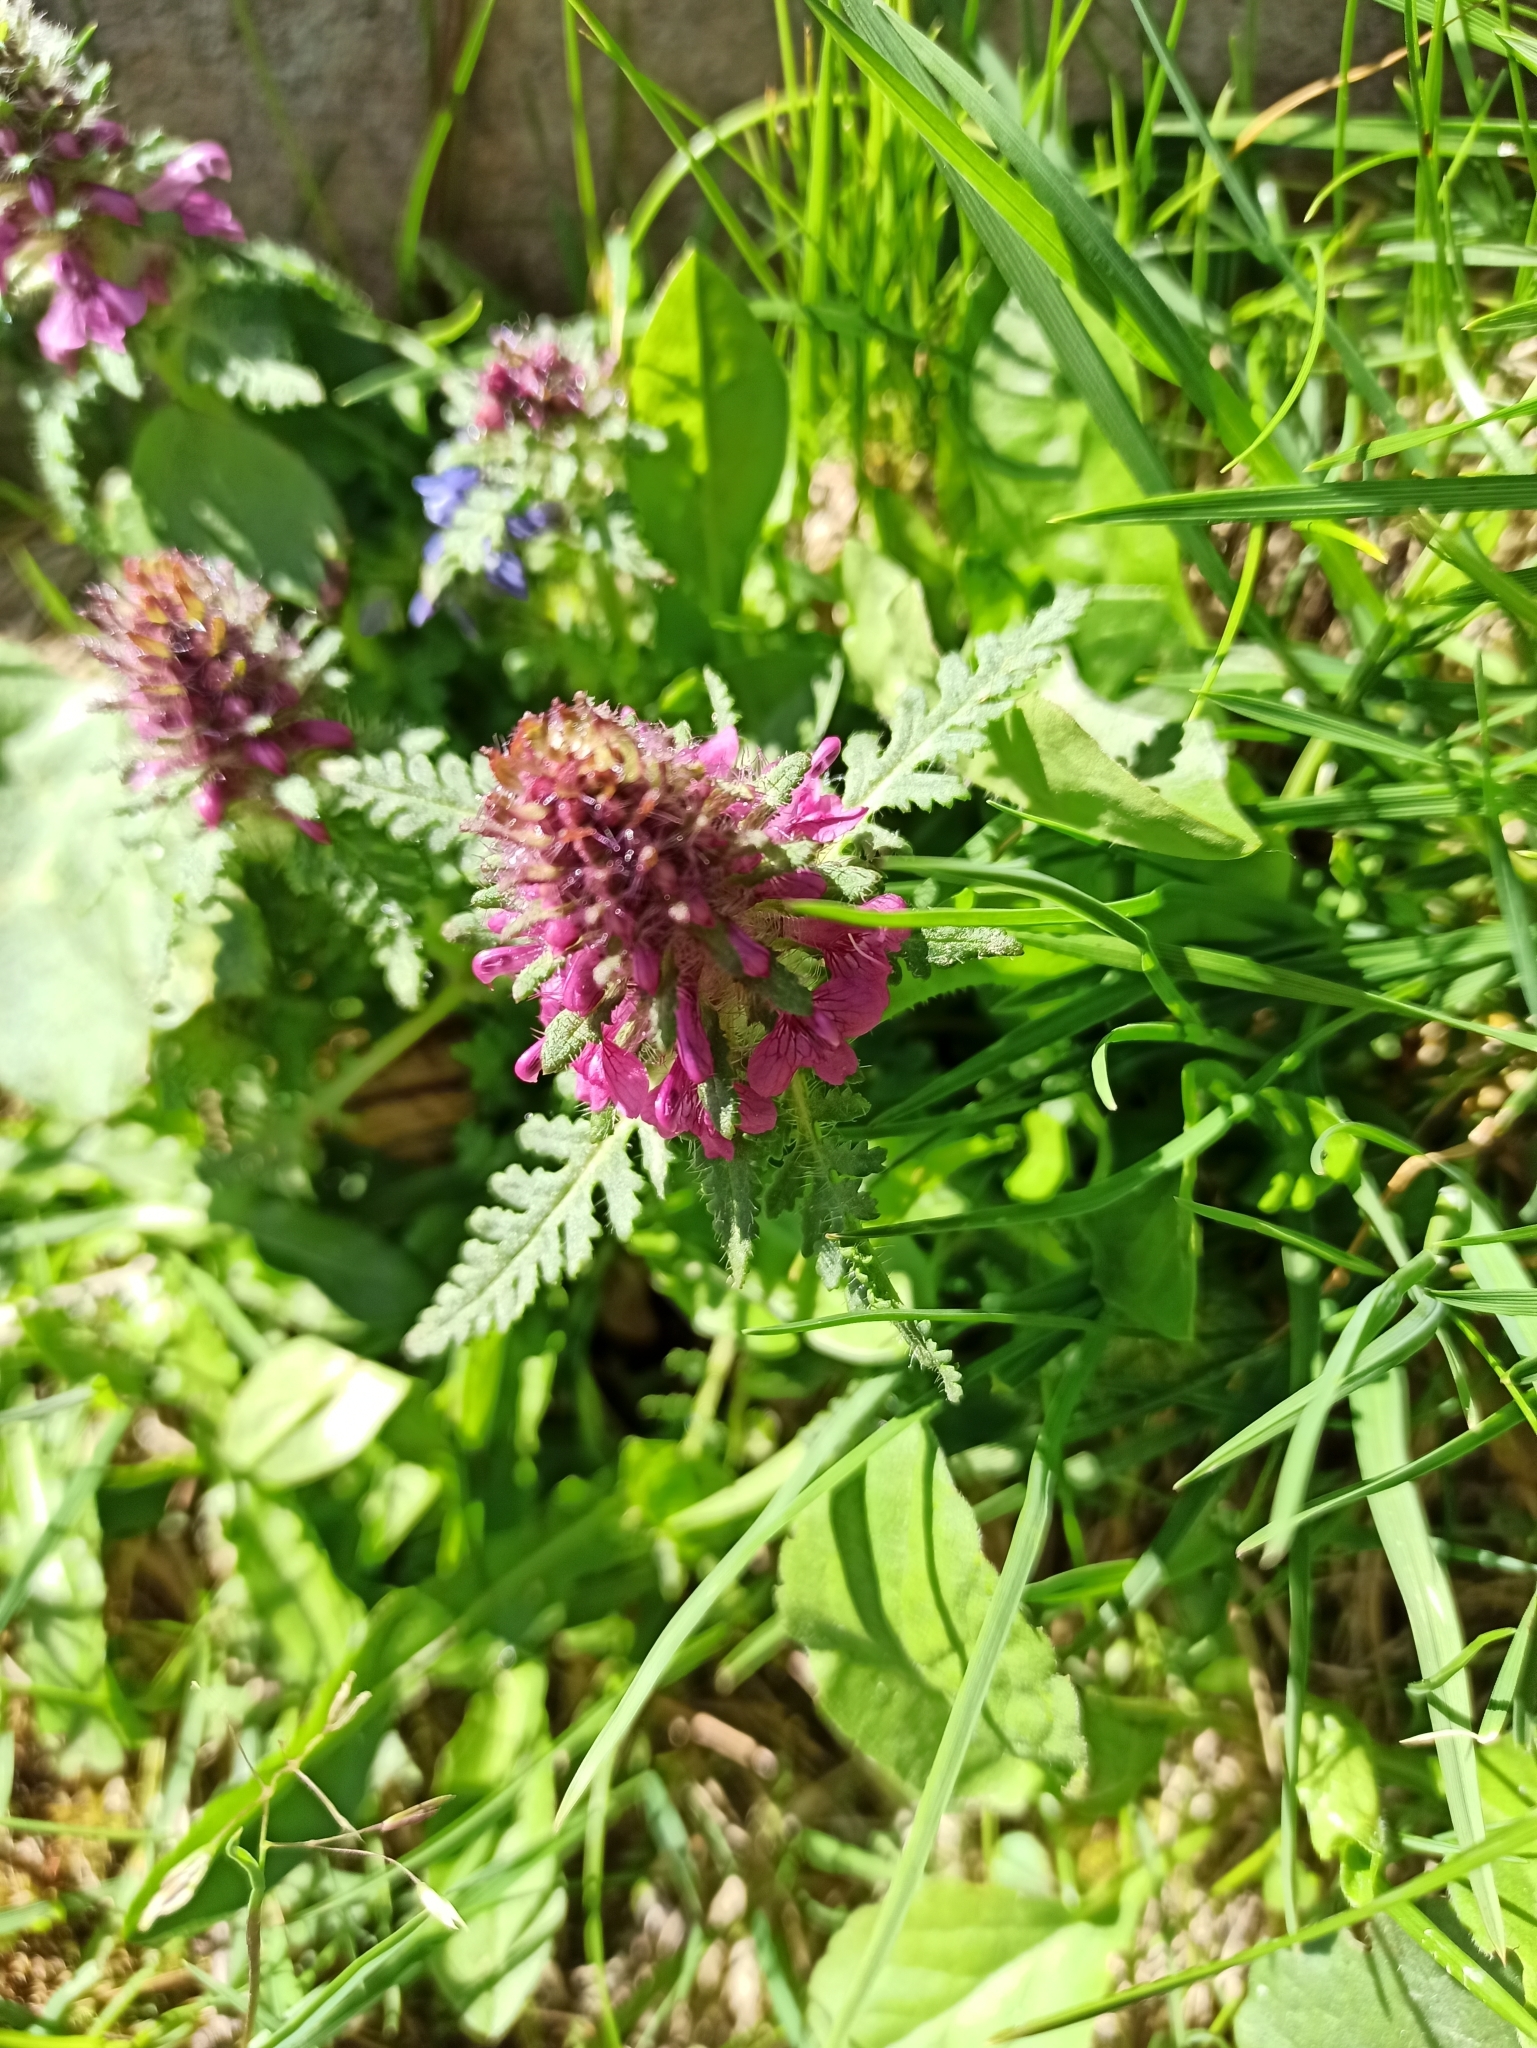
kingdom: Plantae
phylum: Tracheophyta
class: Magnoliopsida
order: Lamiales
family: Orobanchaceae
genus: Pedicularis
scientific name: Pedicularis verticillata
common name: Whorled lousewort
